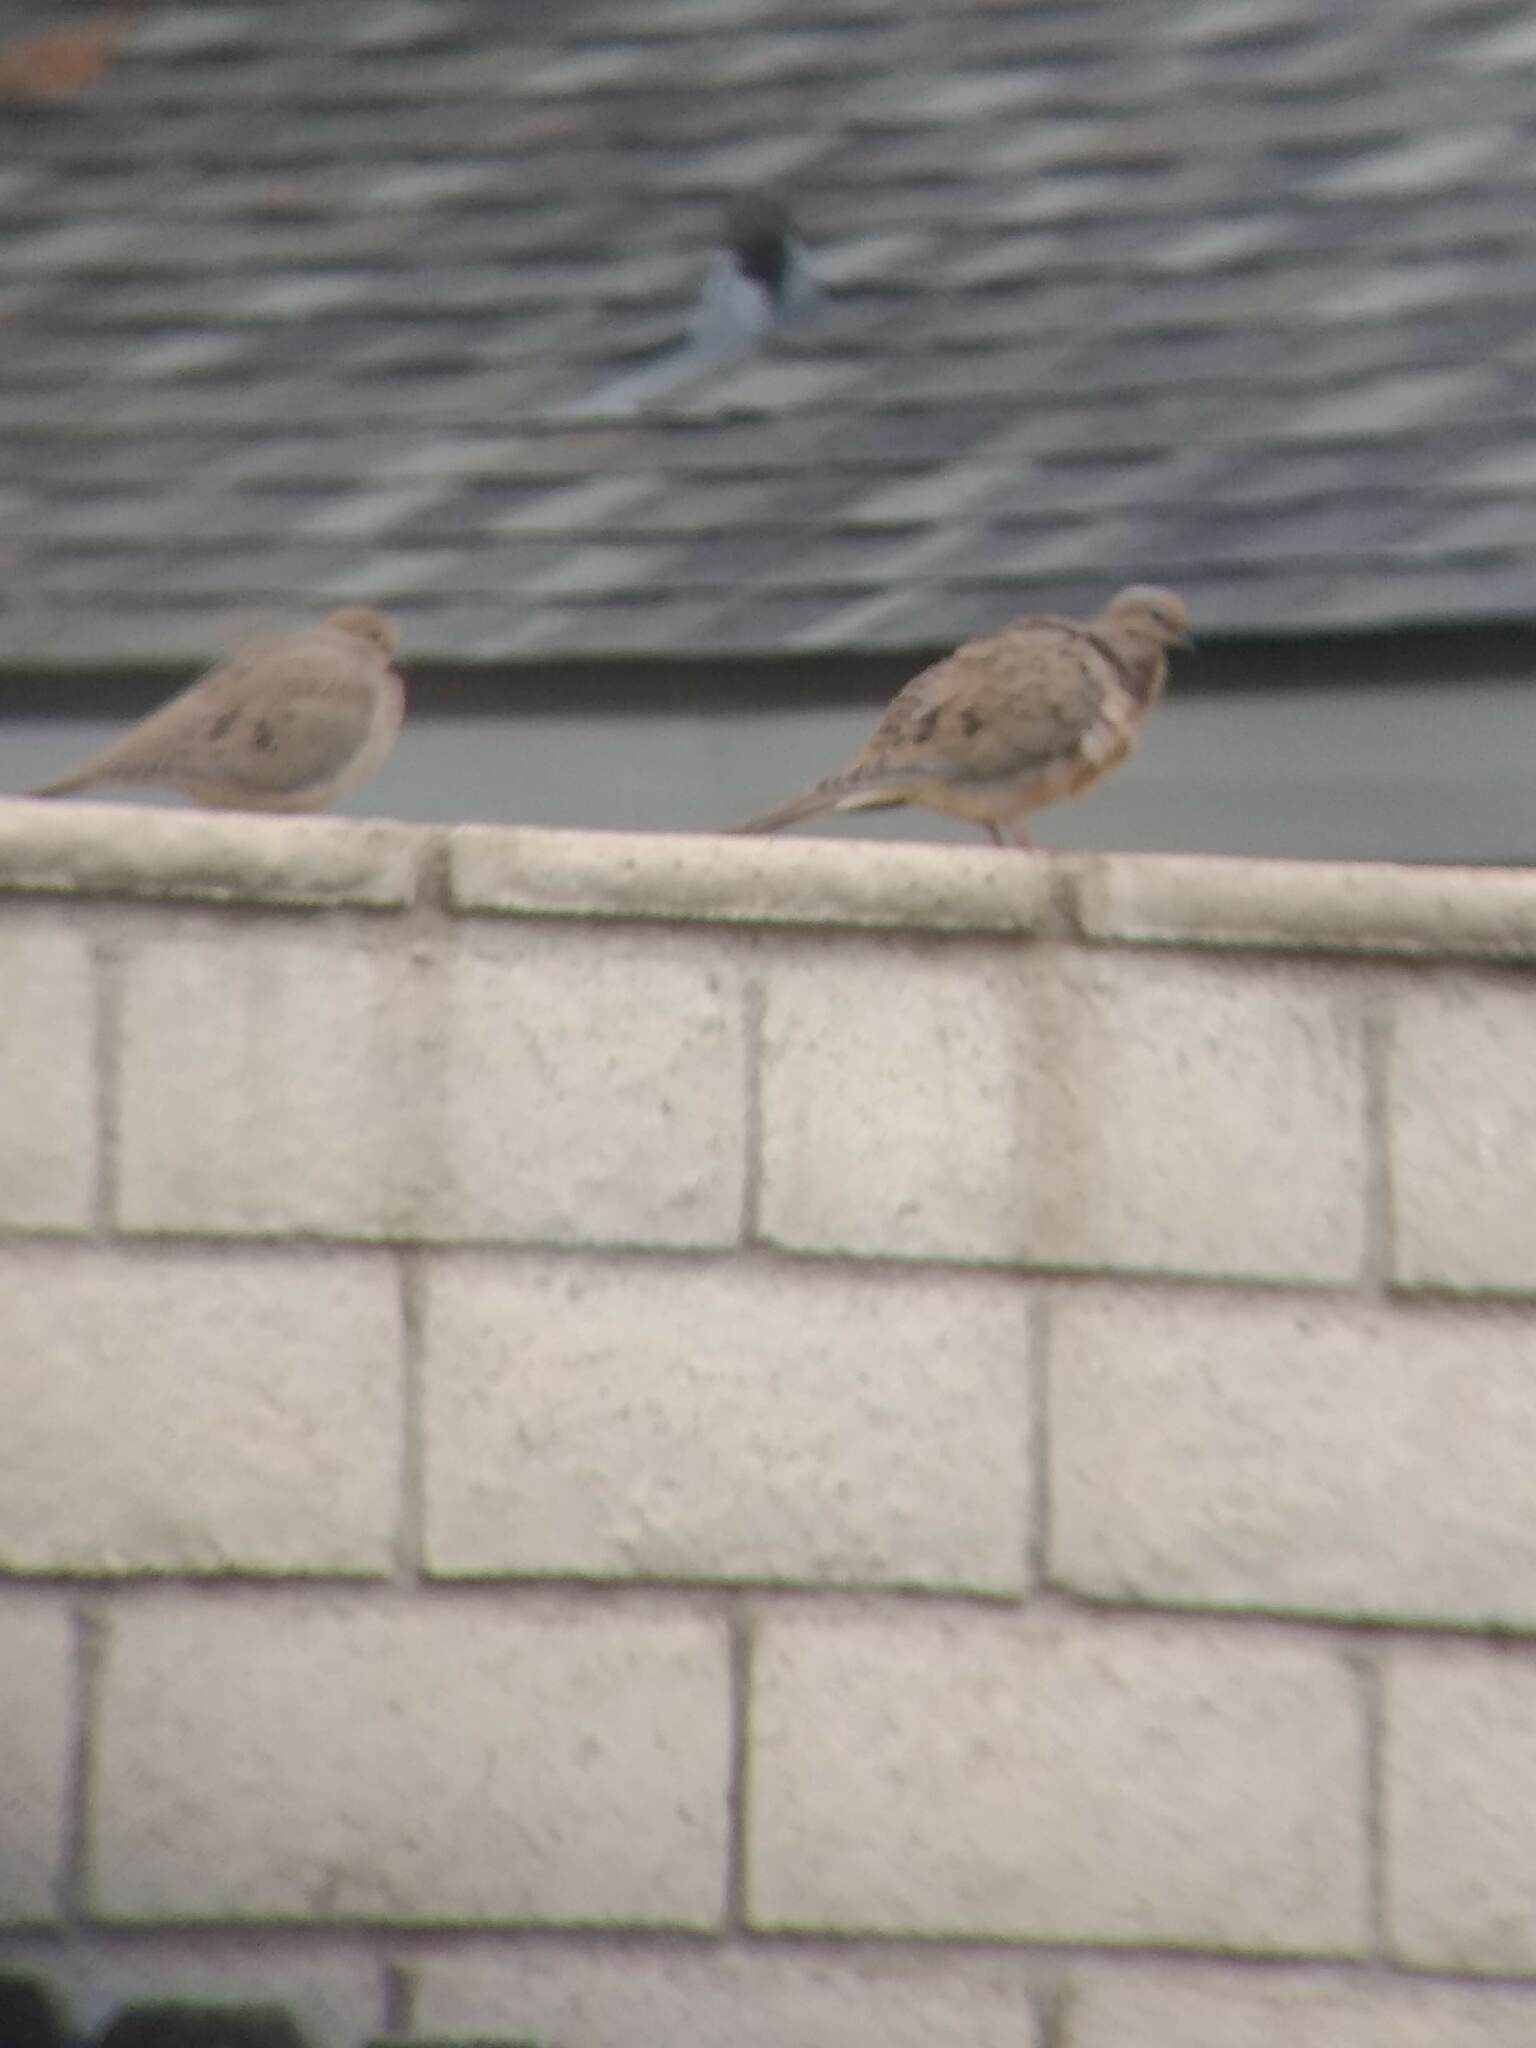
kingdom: Animalia
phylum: Chordata
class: Aves
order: Columbiformes
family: Columbidae
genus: Zenaida
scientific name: Zenaida macroura
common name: Mourning dove
